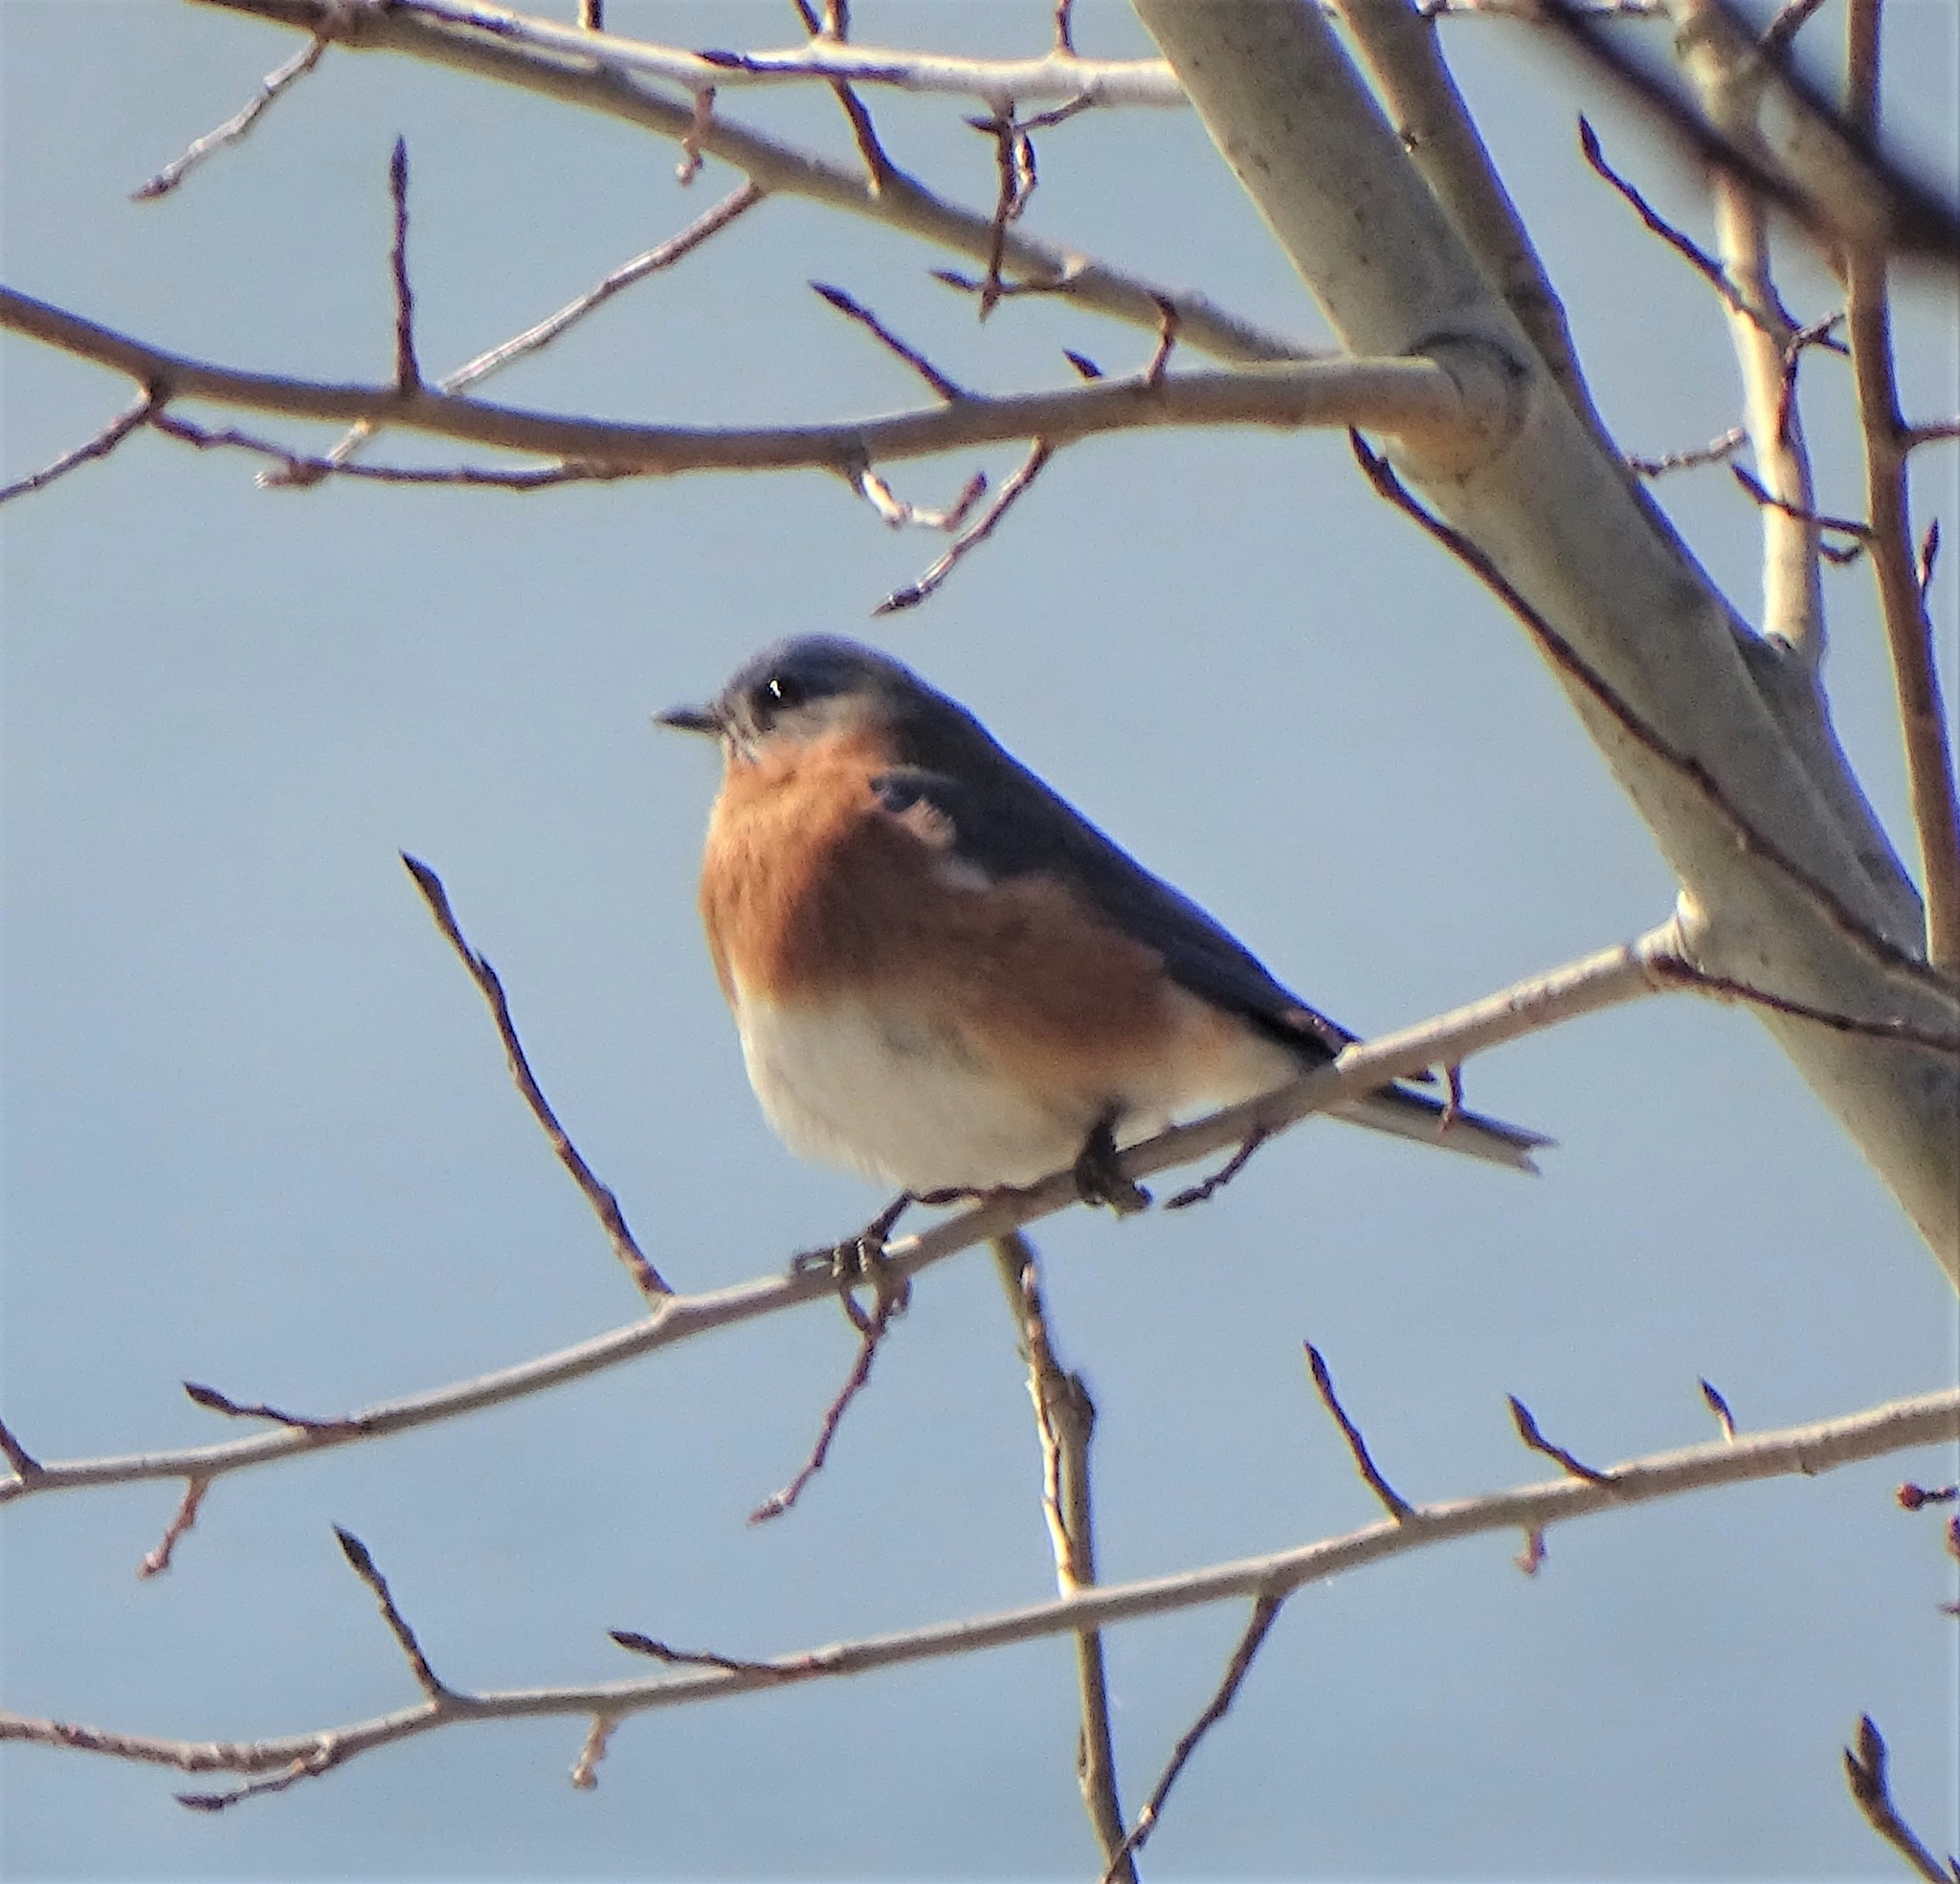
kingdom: Animalia
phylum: Chordata
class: Aves
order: Passeriformes
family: Turdidae
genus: Sialia
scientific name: Sialia sialis
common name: Eastern bluebird
